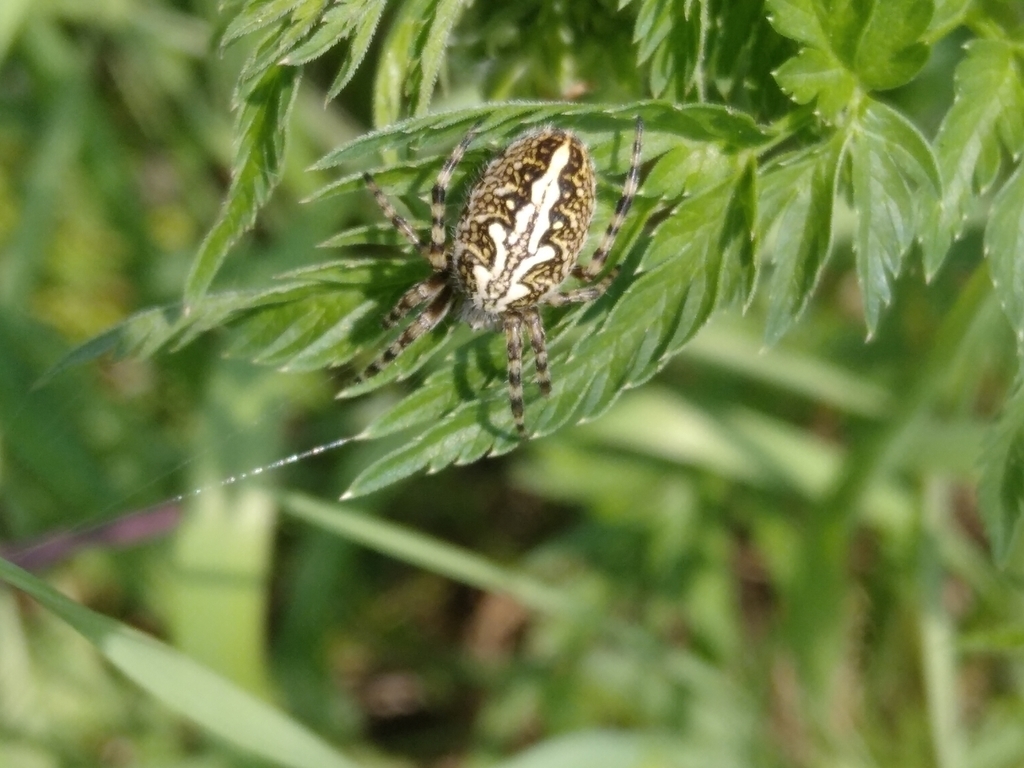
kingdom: Animalia
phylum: Arthropoda
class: Arachnida
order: Araneae
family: Araneidae
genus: Aculepeira
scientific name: Aculepeira ceropegia
